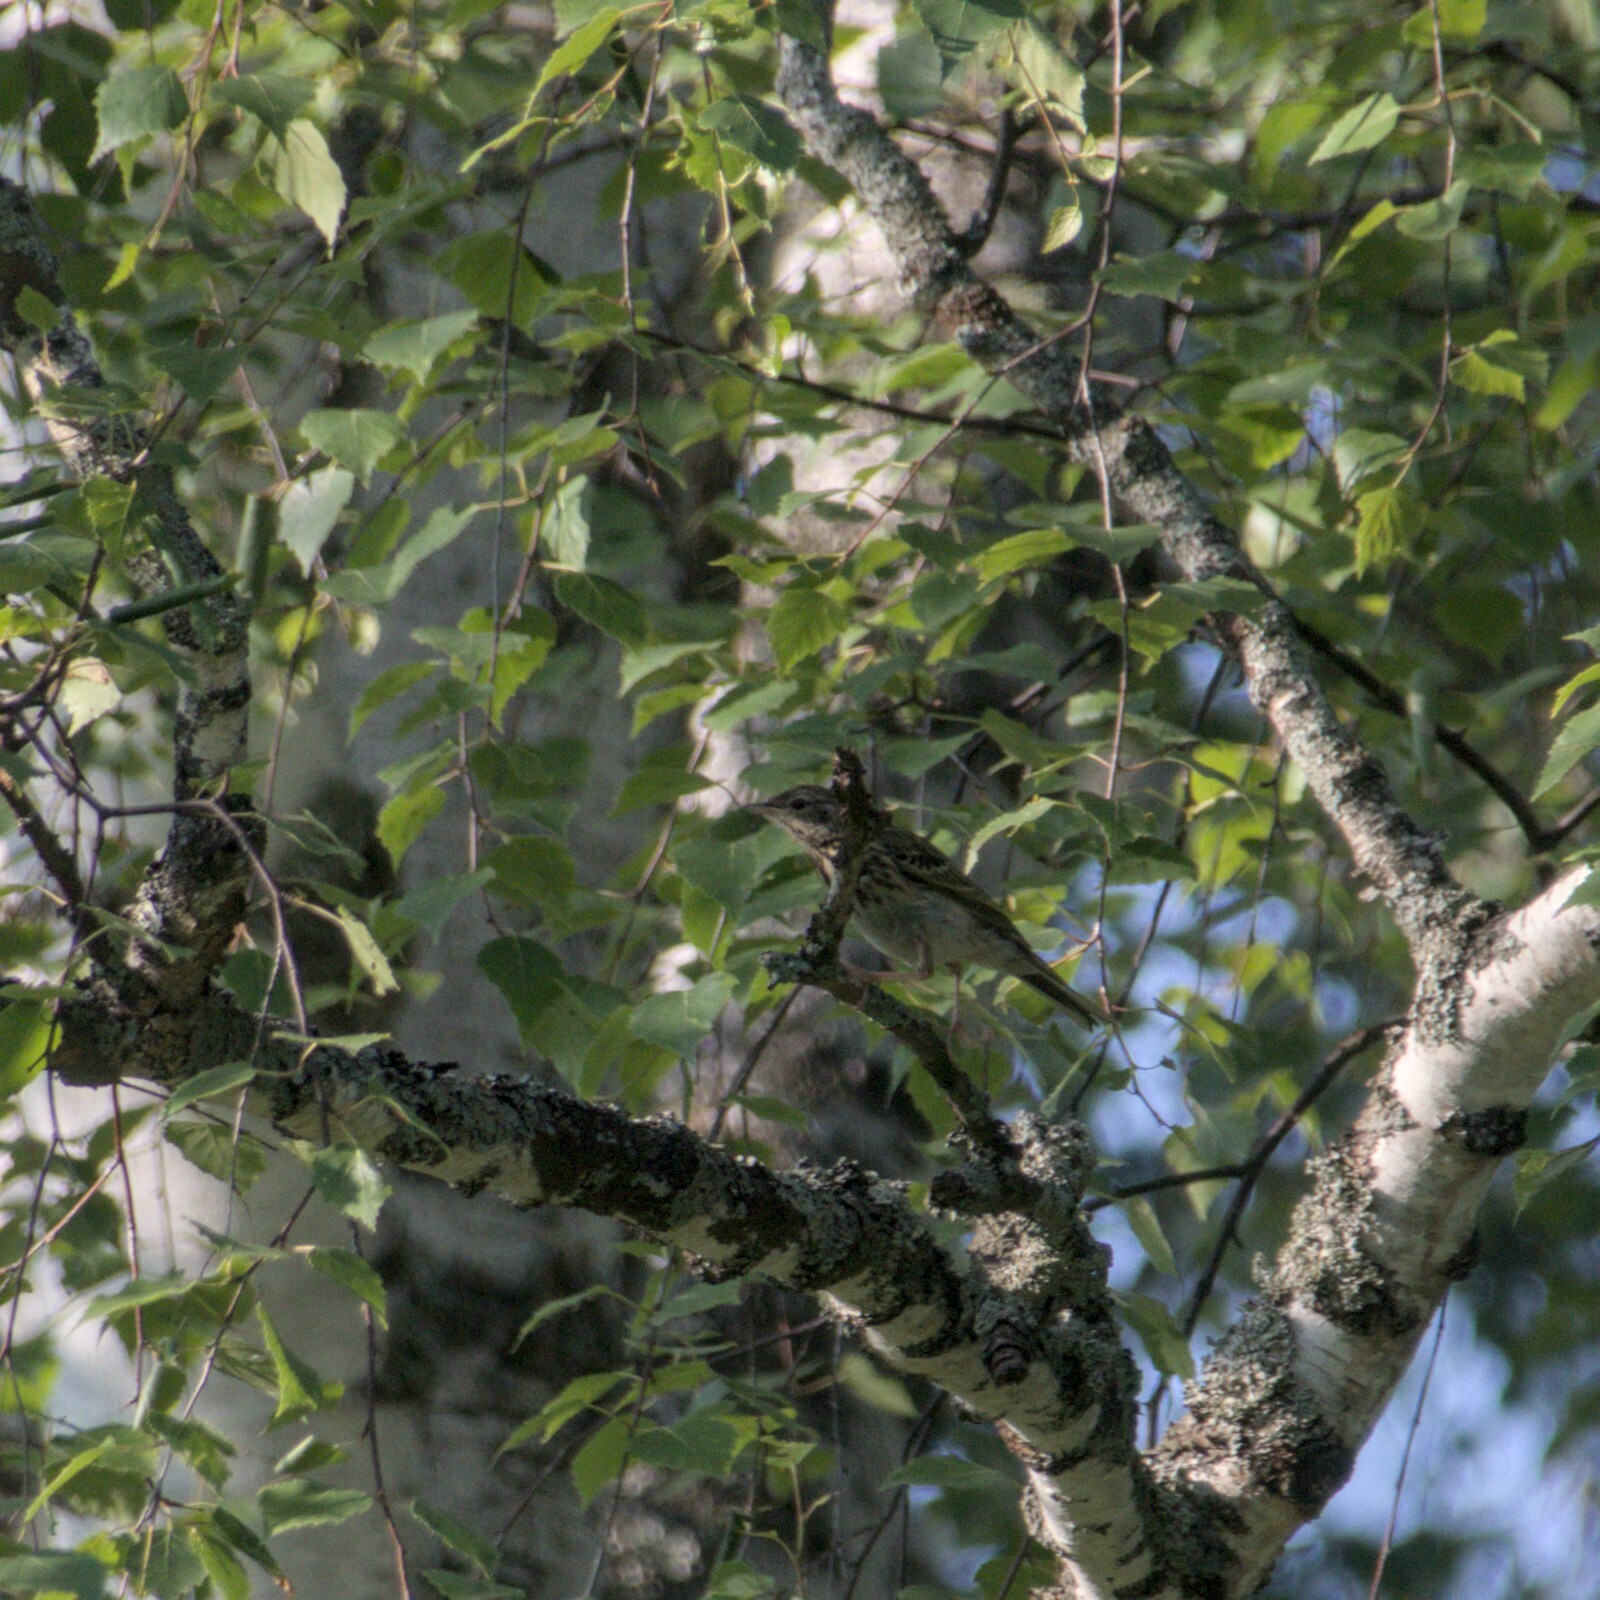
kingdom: Animalia
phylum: Chordata
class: Aves
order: Passeriformes
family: Motacillidae
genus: Anthus
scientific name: Anthus trivialis
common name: Tree pipit
